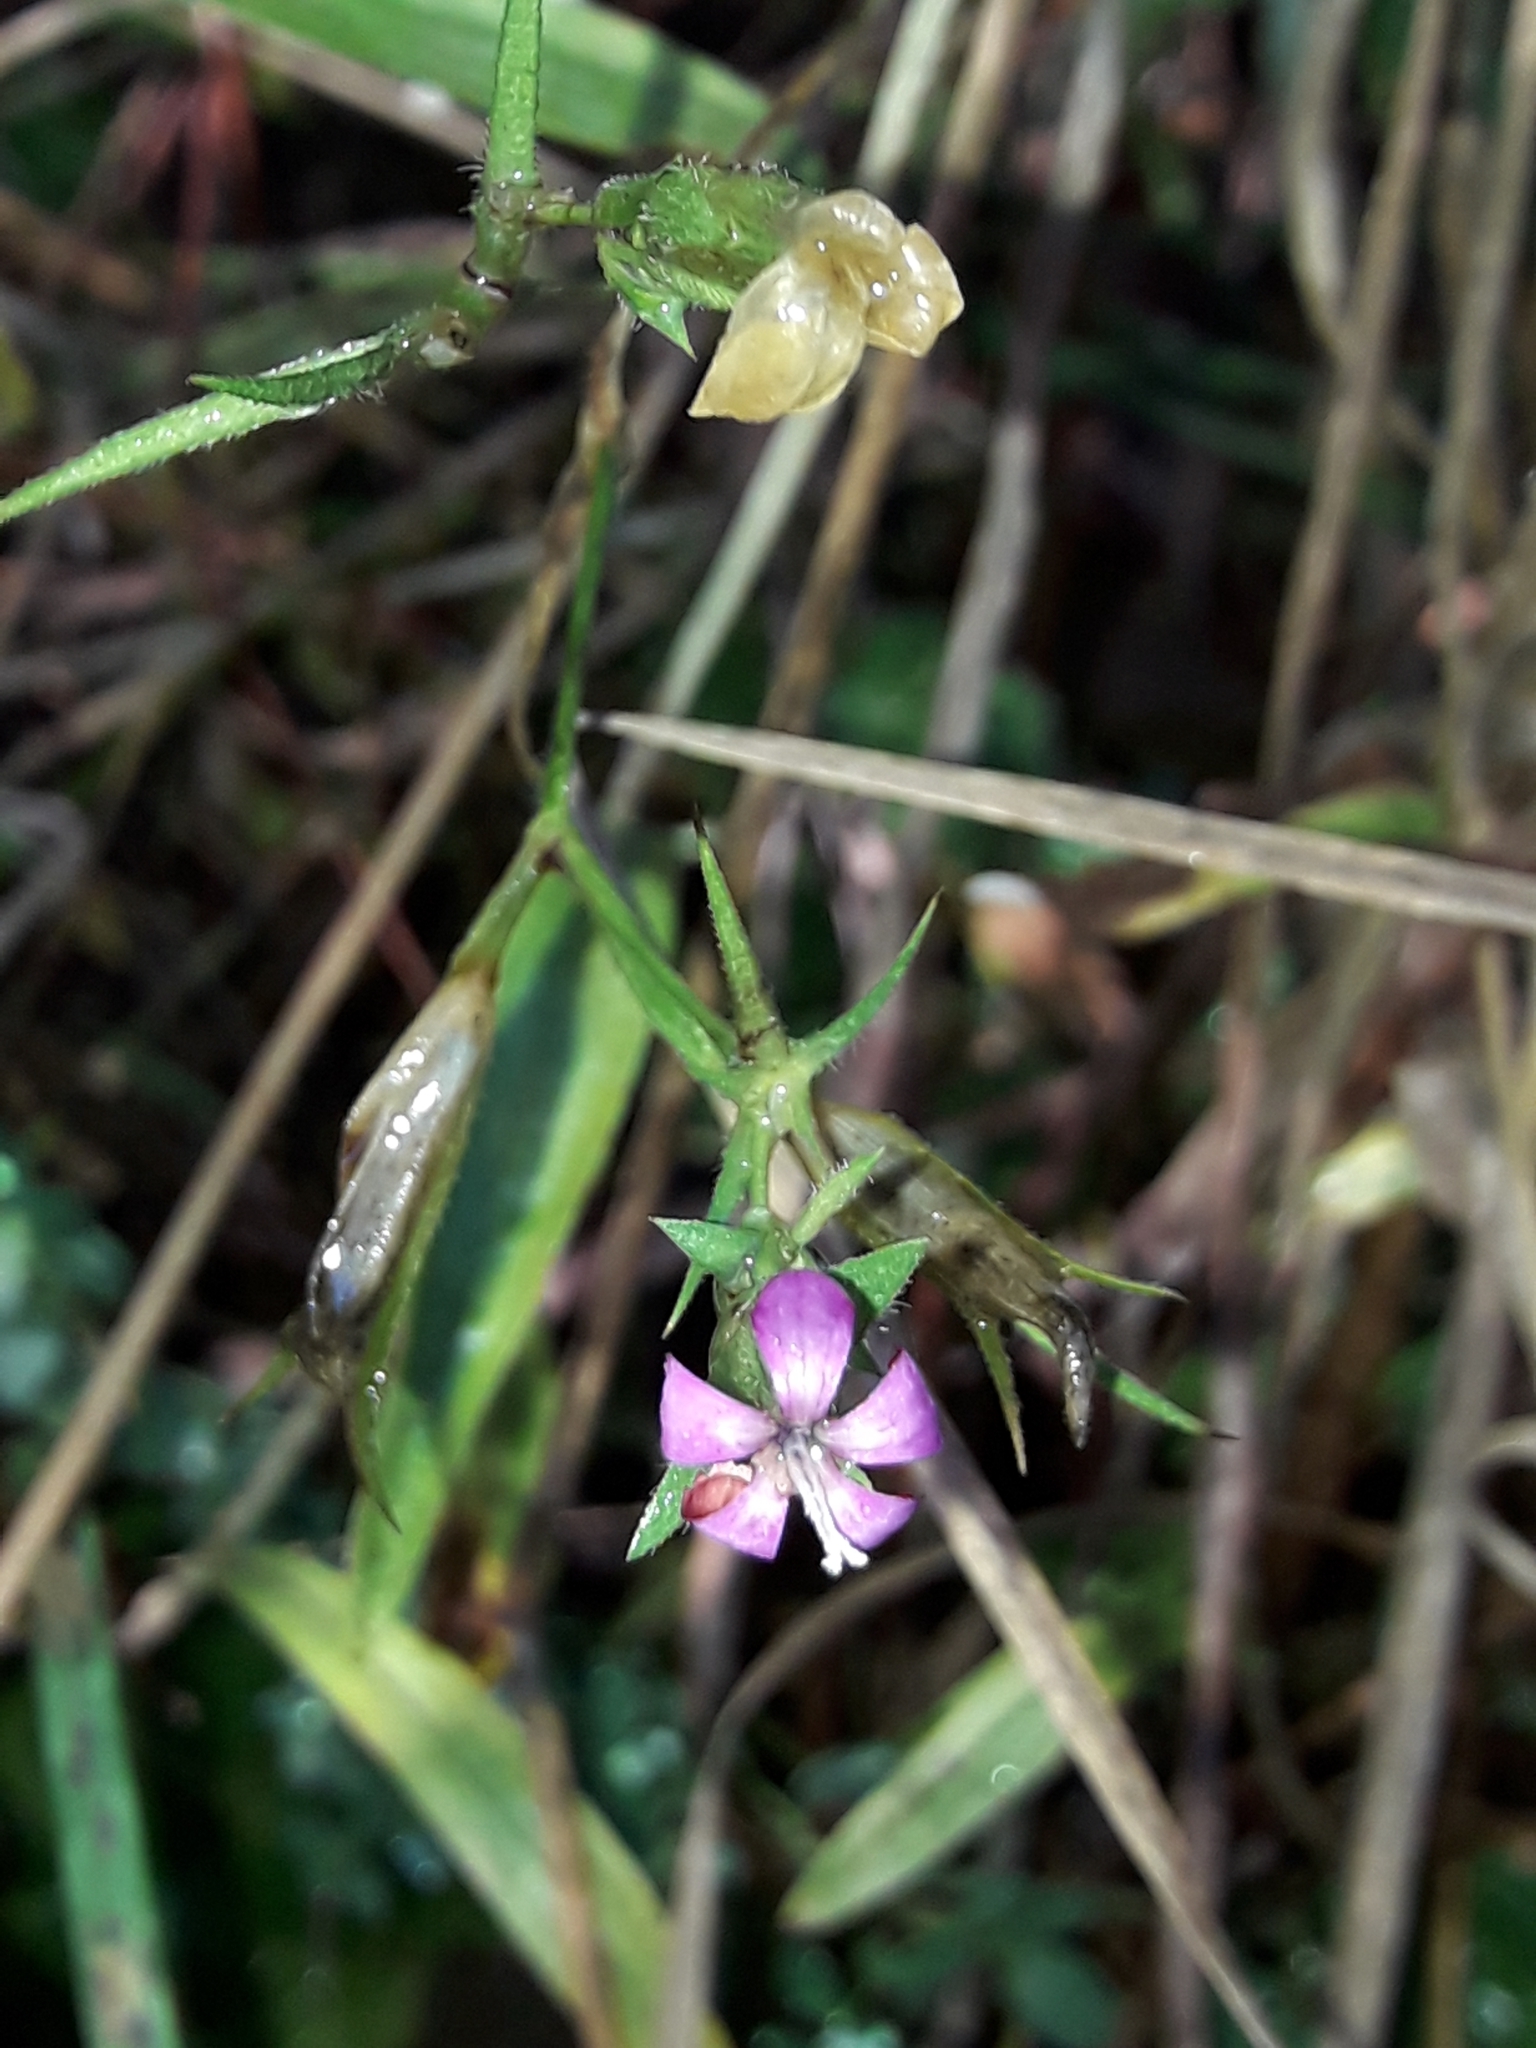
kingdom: Plantae
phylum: Tracheophyta
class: Magnoliopsida
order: Caryophyllales
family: Caryophyllaceae
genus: Dianthus
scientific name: Dianthus armeria
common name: Deptford pink
